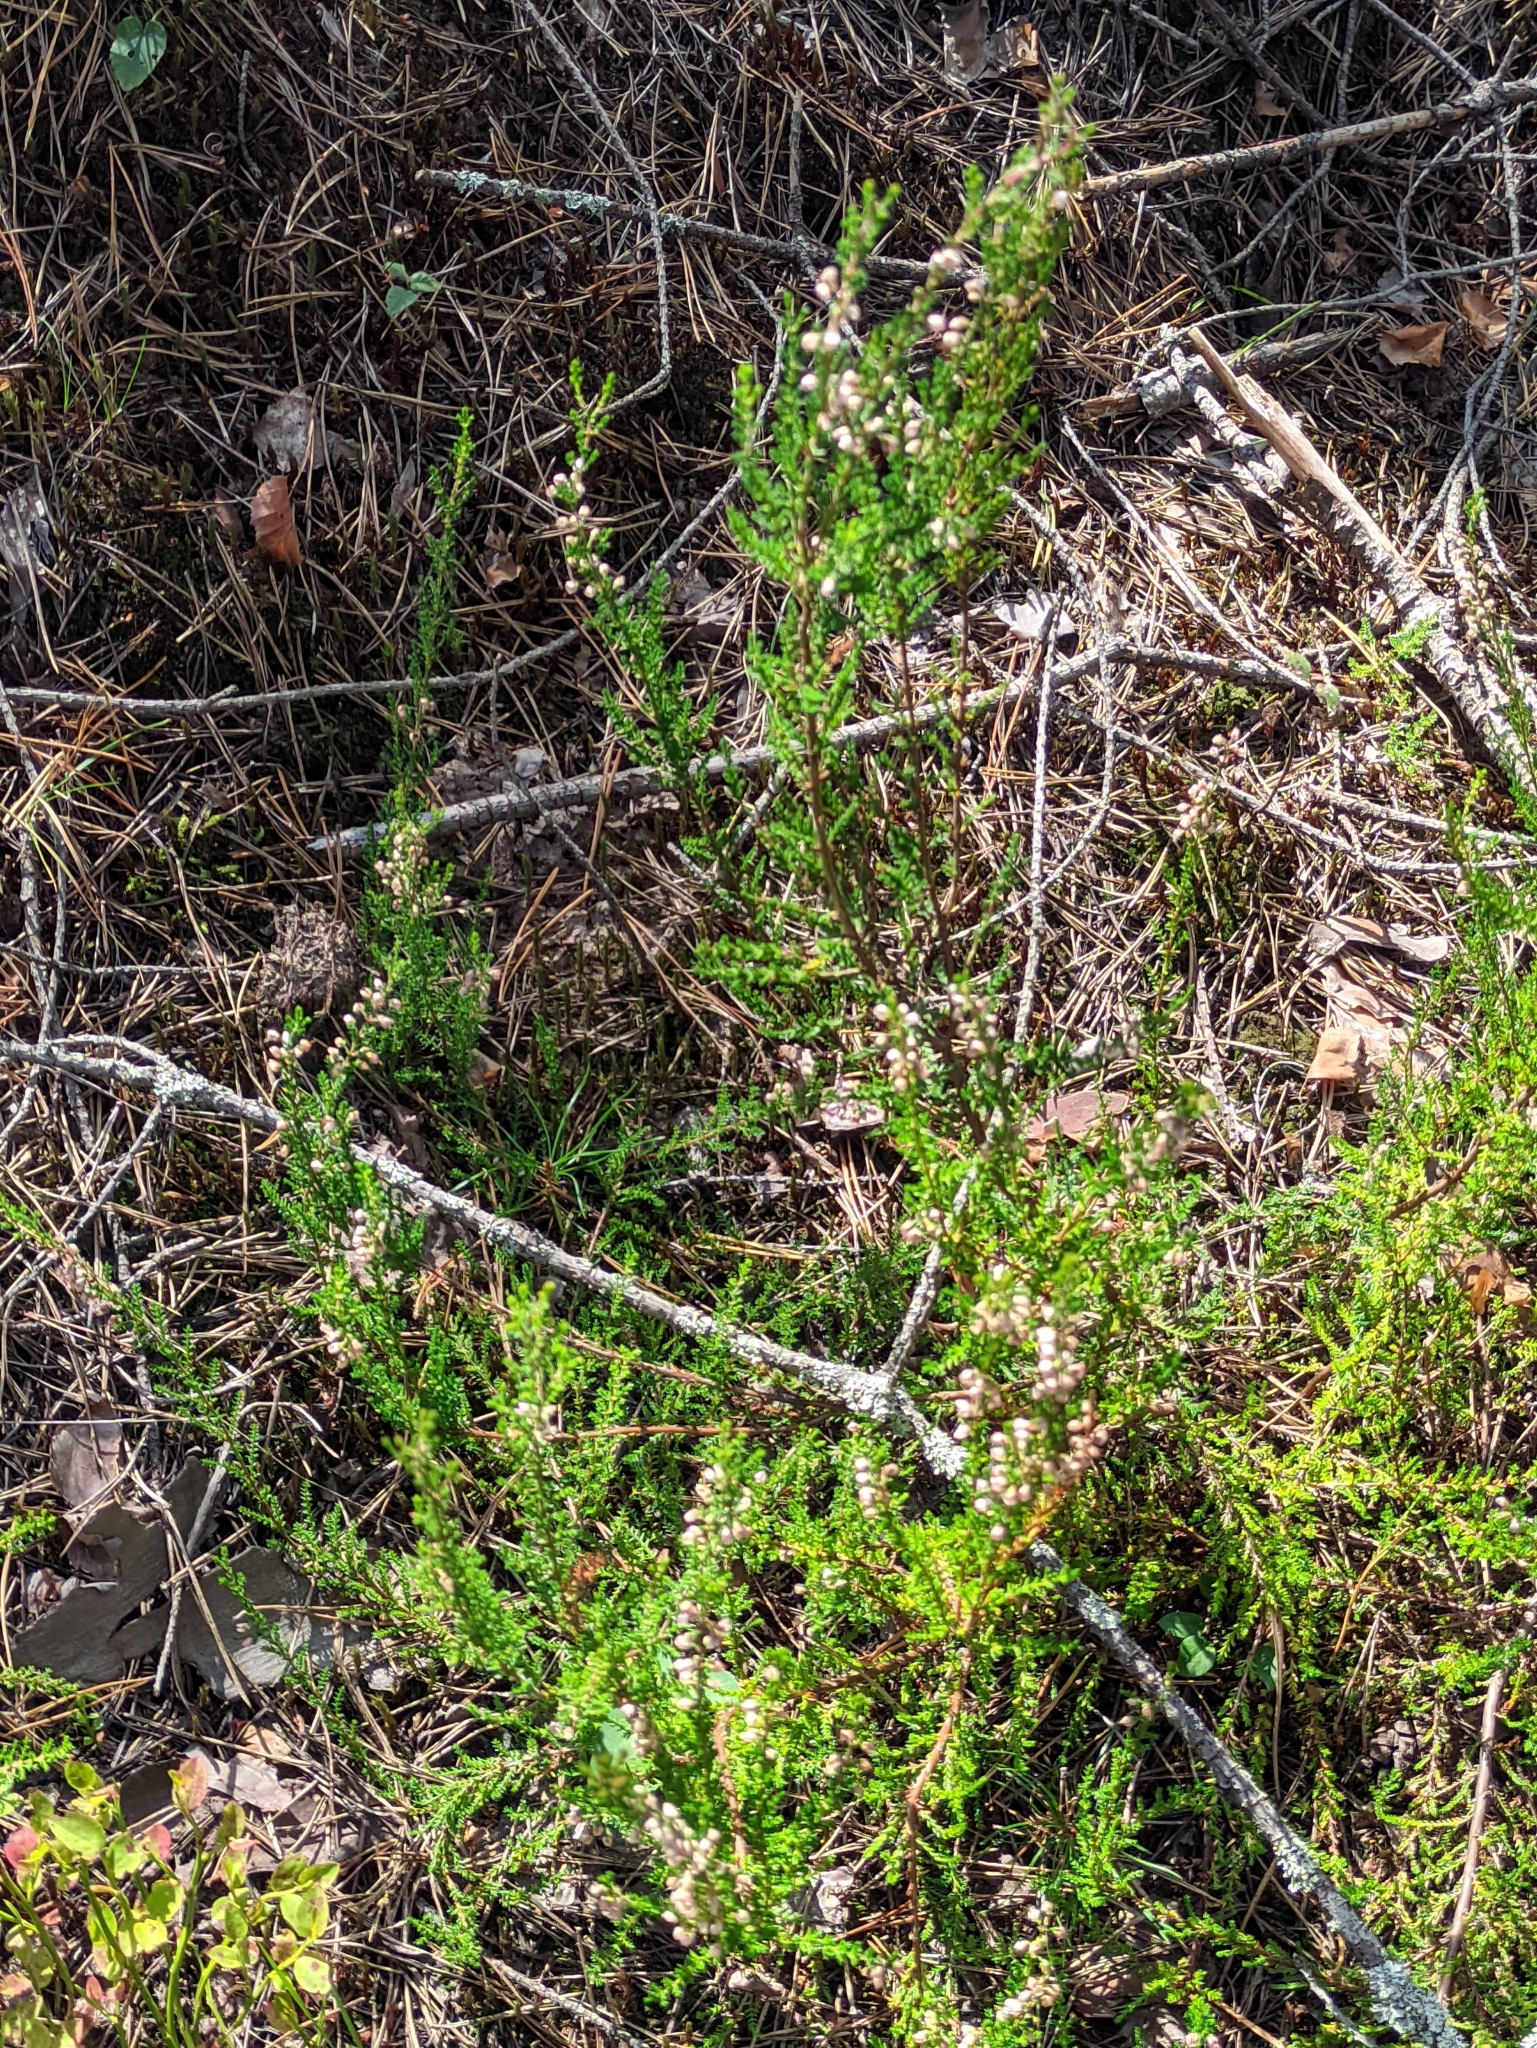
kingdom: Plantae
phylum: Tracheophyta
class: Magnoliopsida
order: Ericales
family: Ericaceae
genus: Calluna
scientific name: Calluna vulgaris
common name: Heather
